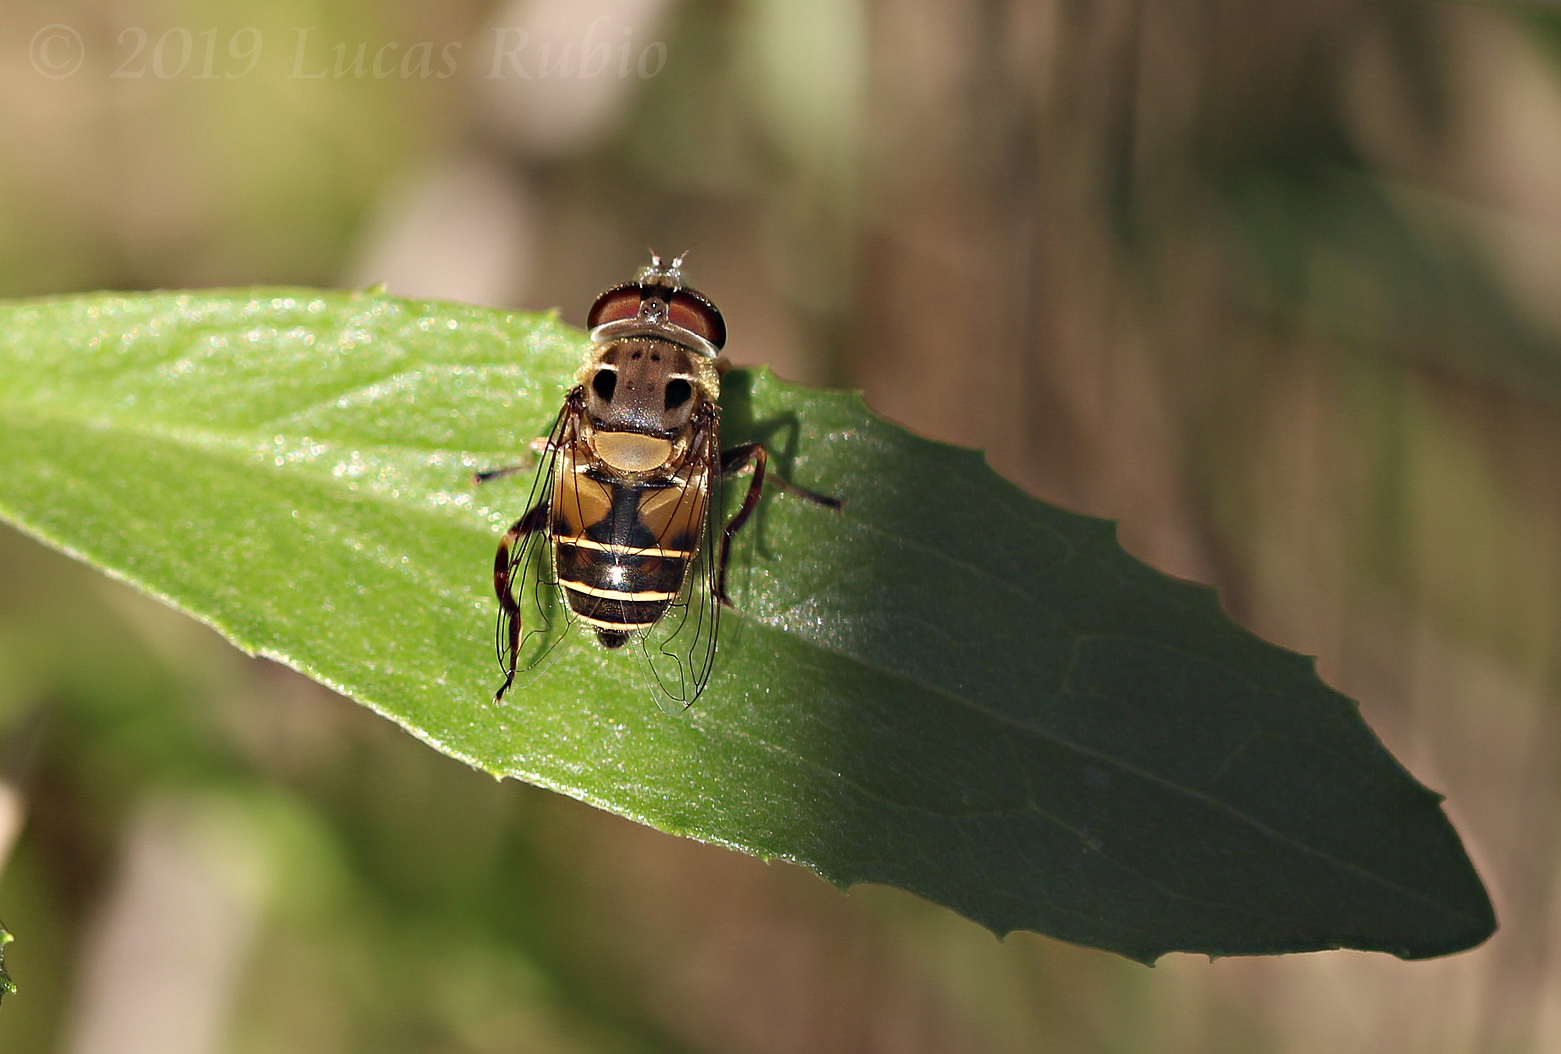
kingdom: Animalia
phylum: Arthropoda
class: Insecta
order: Diptera
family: Syrphidae
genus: Palpada
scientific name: Palpada
